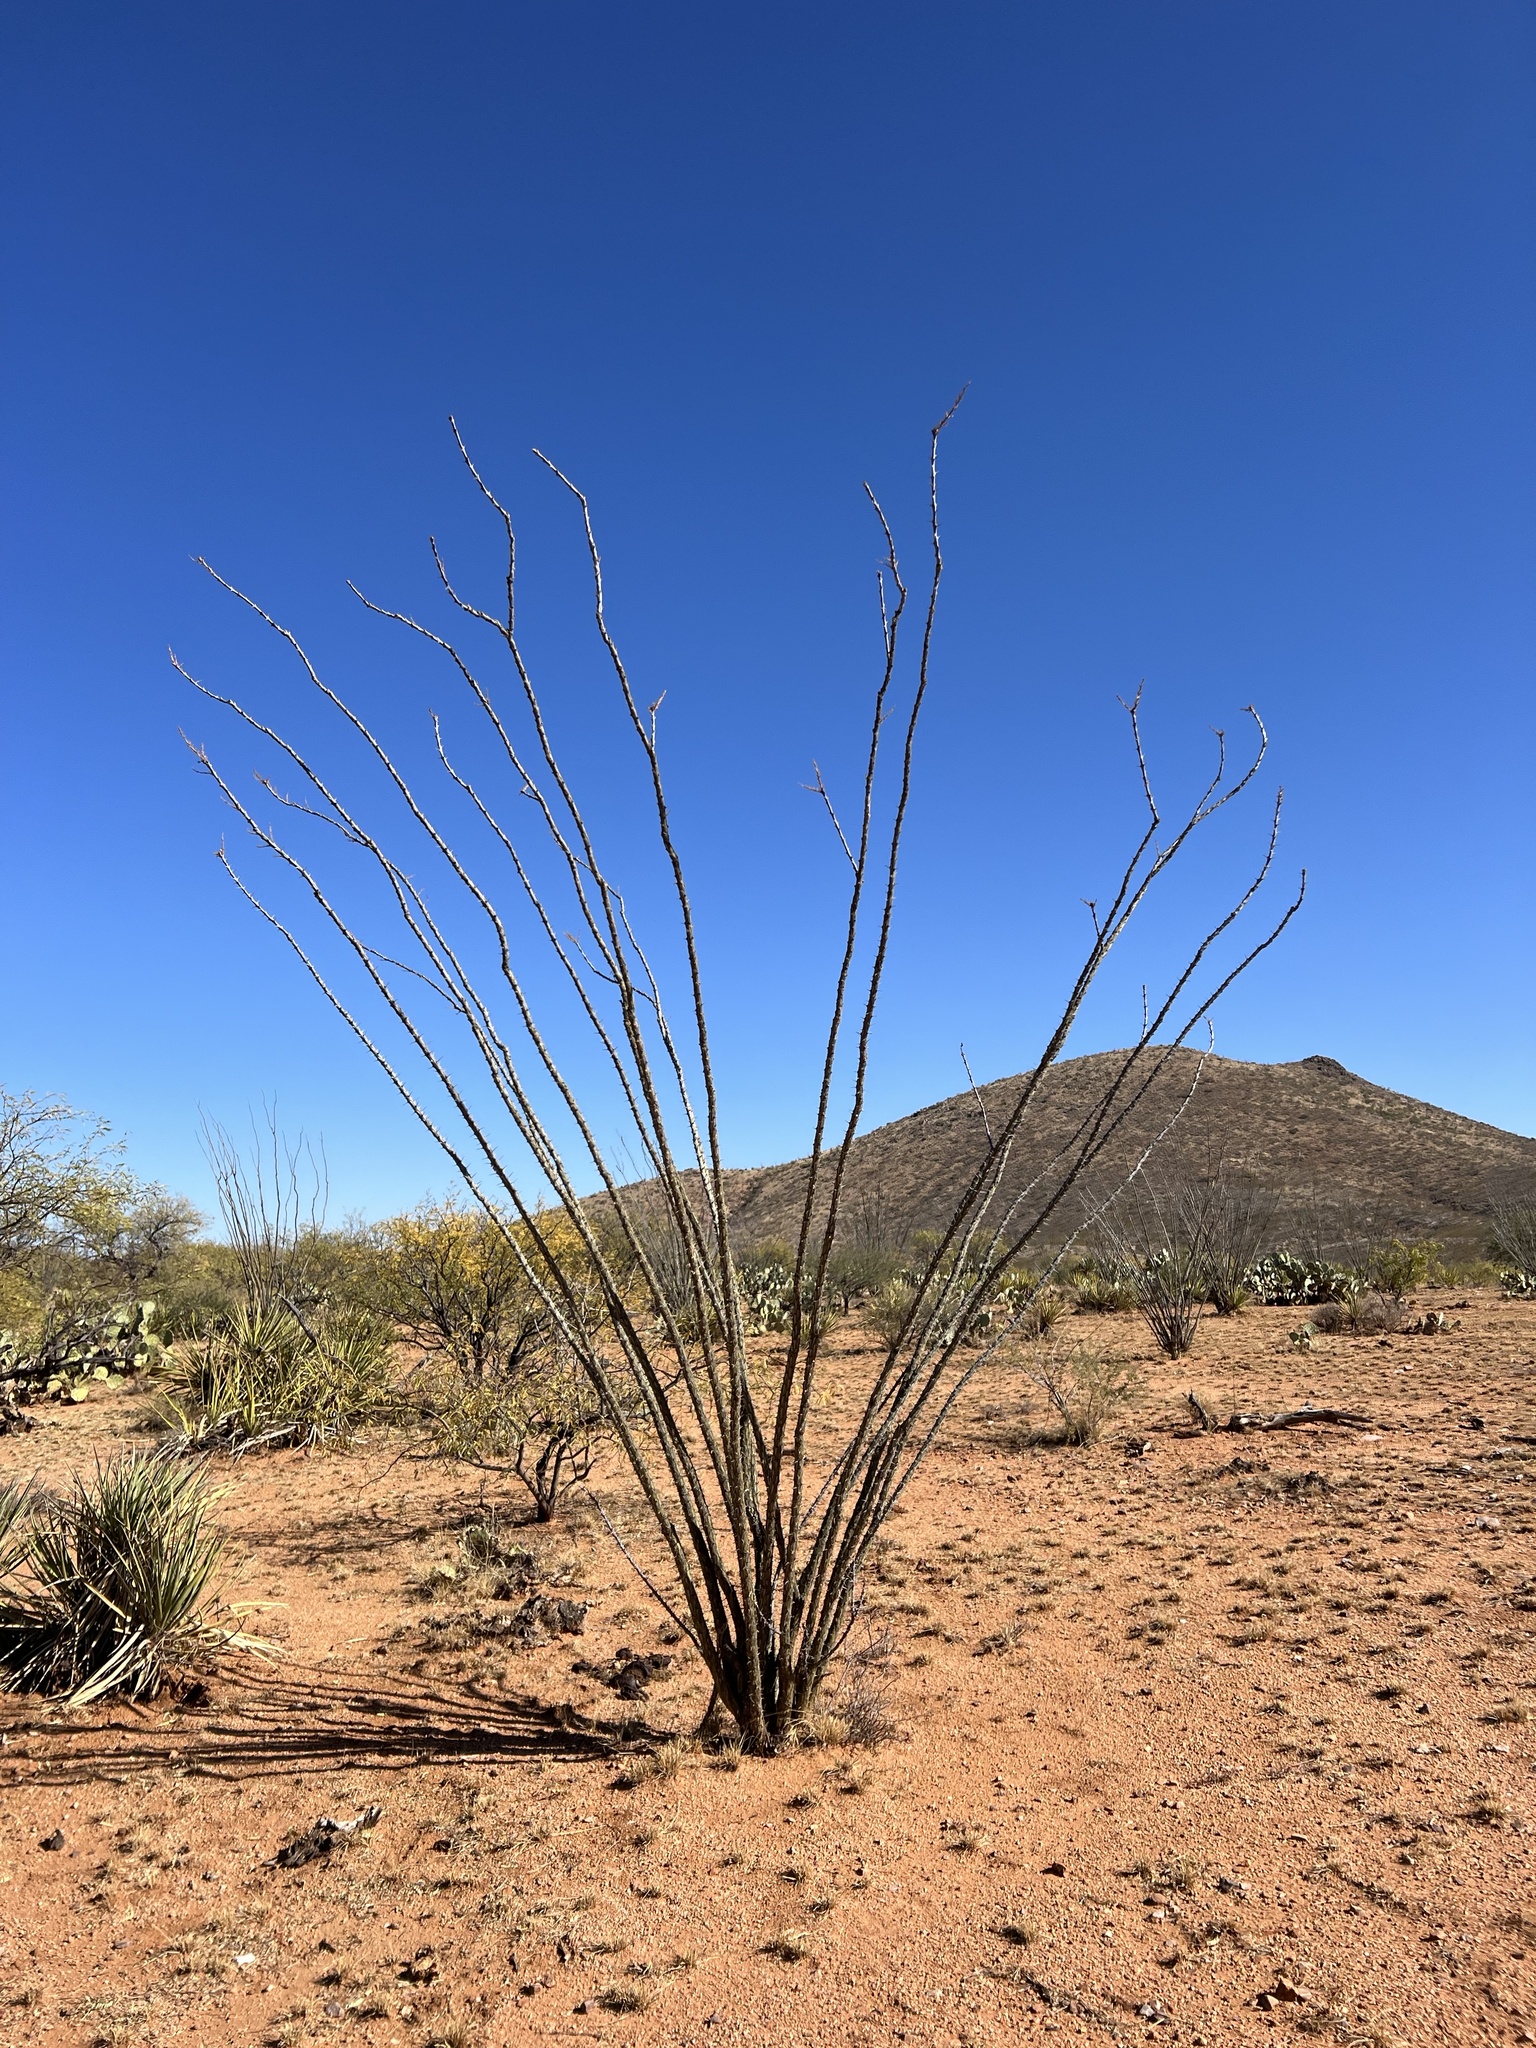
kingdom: Plantae
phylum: Tracheophyta
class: Magnoliopsida
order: Ericales
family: Fouquieriaceae
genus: Fouquieria
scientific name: Fouquieria splendens
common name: Vine-cactus
